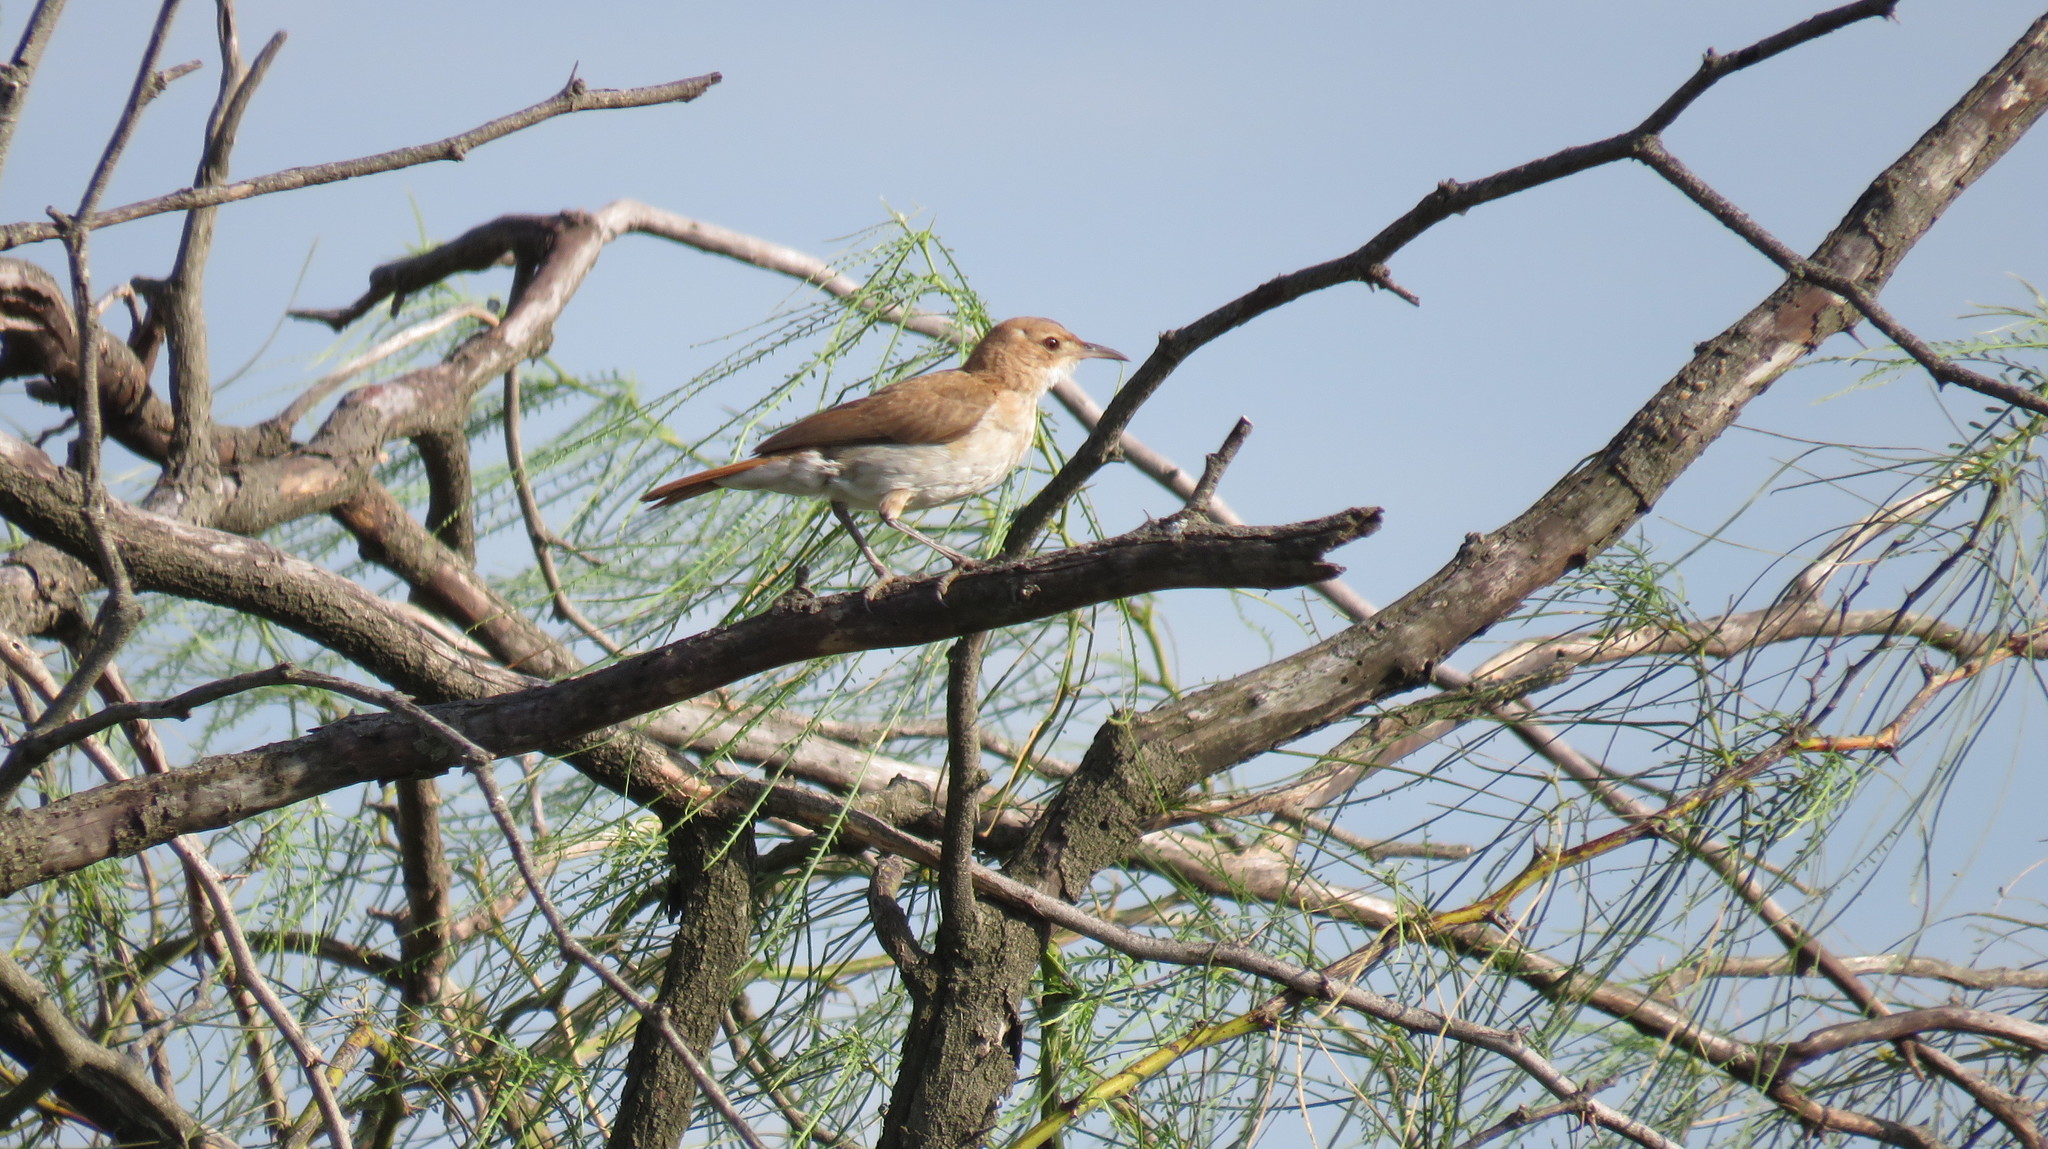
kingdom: Animalia
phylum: Chordata
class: Aves
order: Passeriformes
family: Furnariidae
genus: Furnarius
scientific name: Furnarius rufus
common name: Rufous hornero
